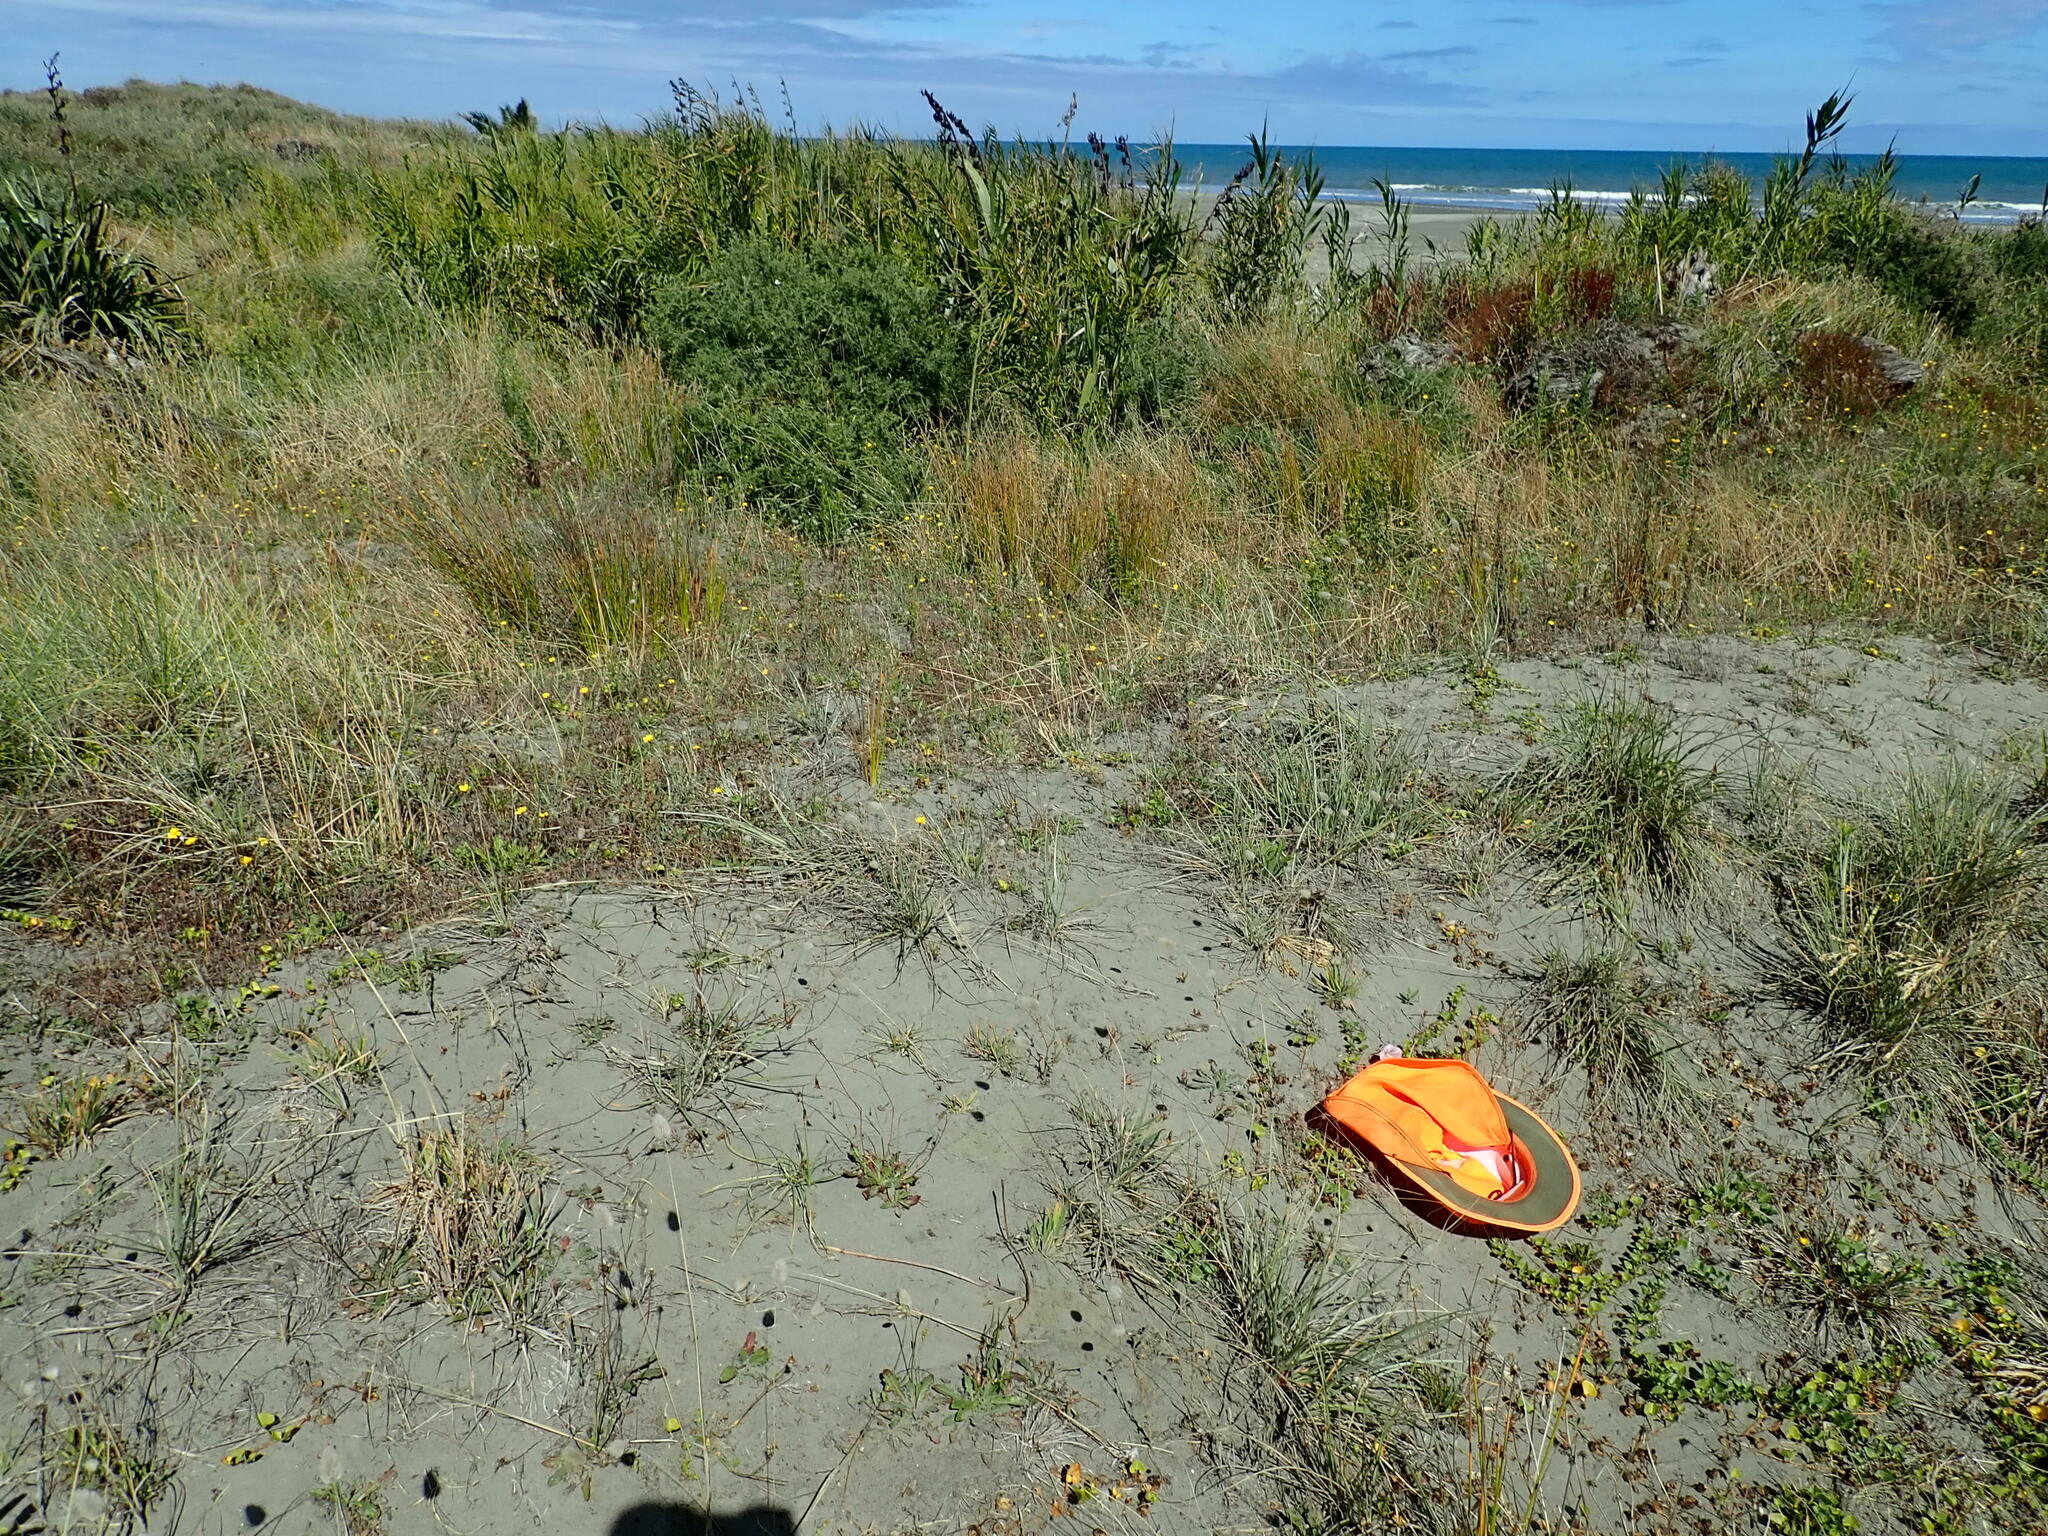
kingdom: Plantae
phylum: Tracheophyta
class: Magnoliopsida
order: Solanales
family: Convolvulaceae
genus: Calystegia
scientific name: Calystegia soldanella
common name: Sea bindweed
